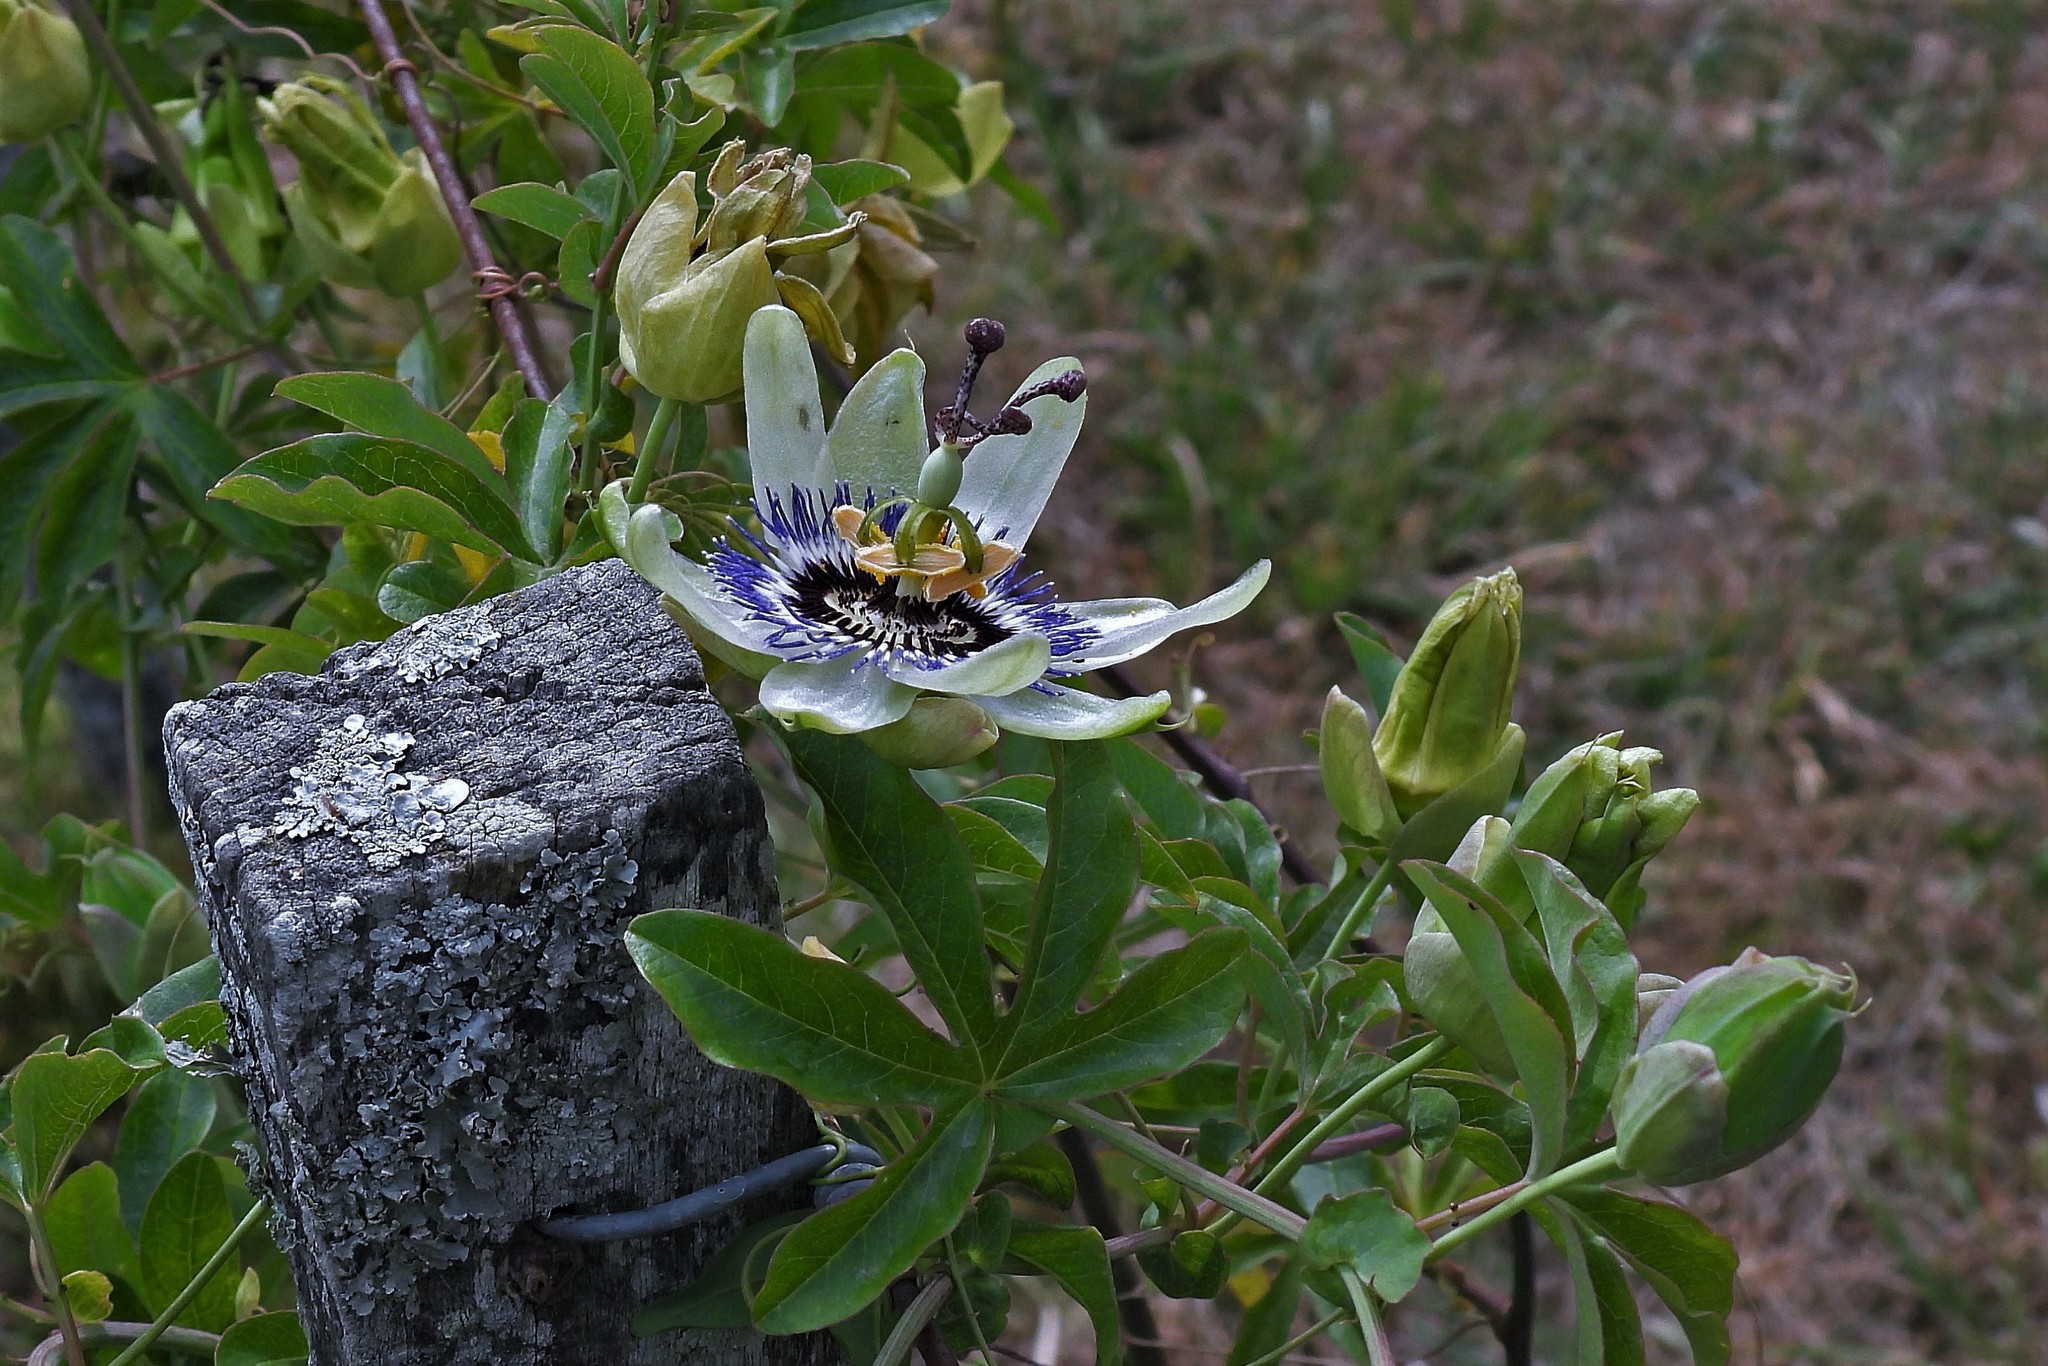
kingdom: Plantae
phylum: Tracheophyta
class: Magnoliopsida
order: Malpighiales
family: Passifloraceae
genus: Passiflora
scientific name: Passiflora caerulea
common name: Blue passionflower
